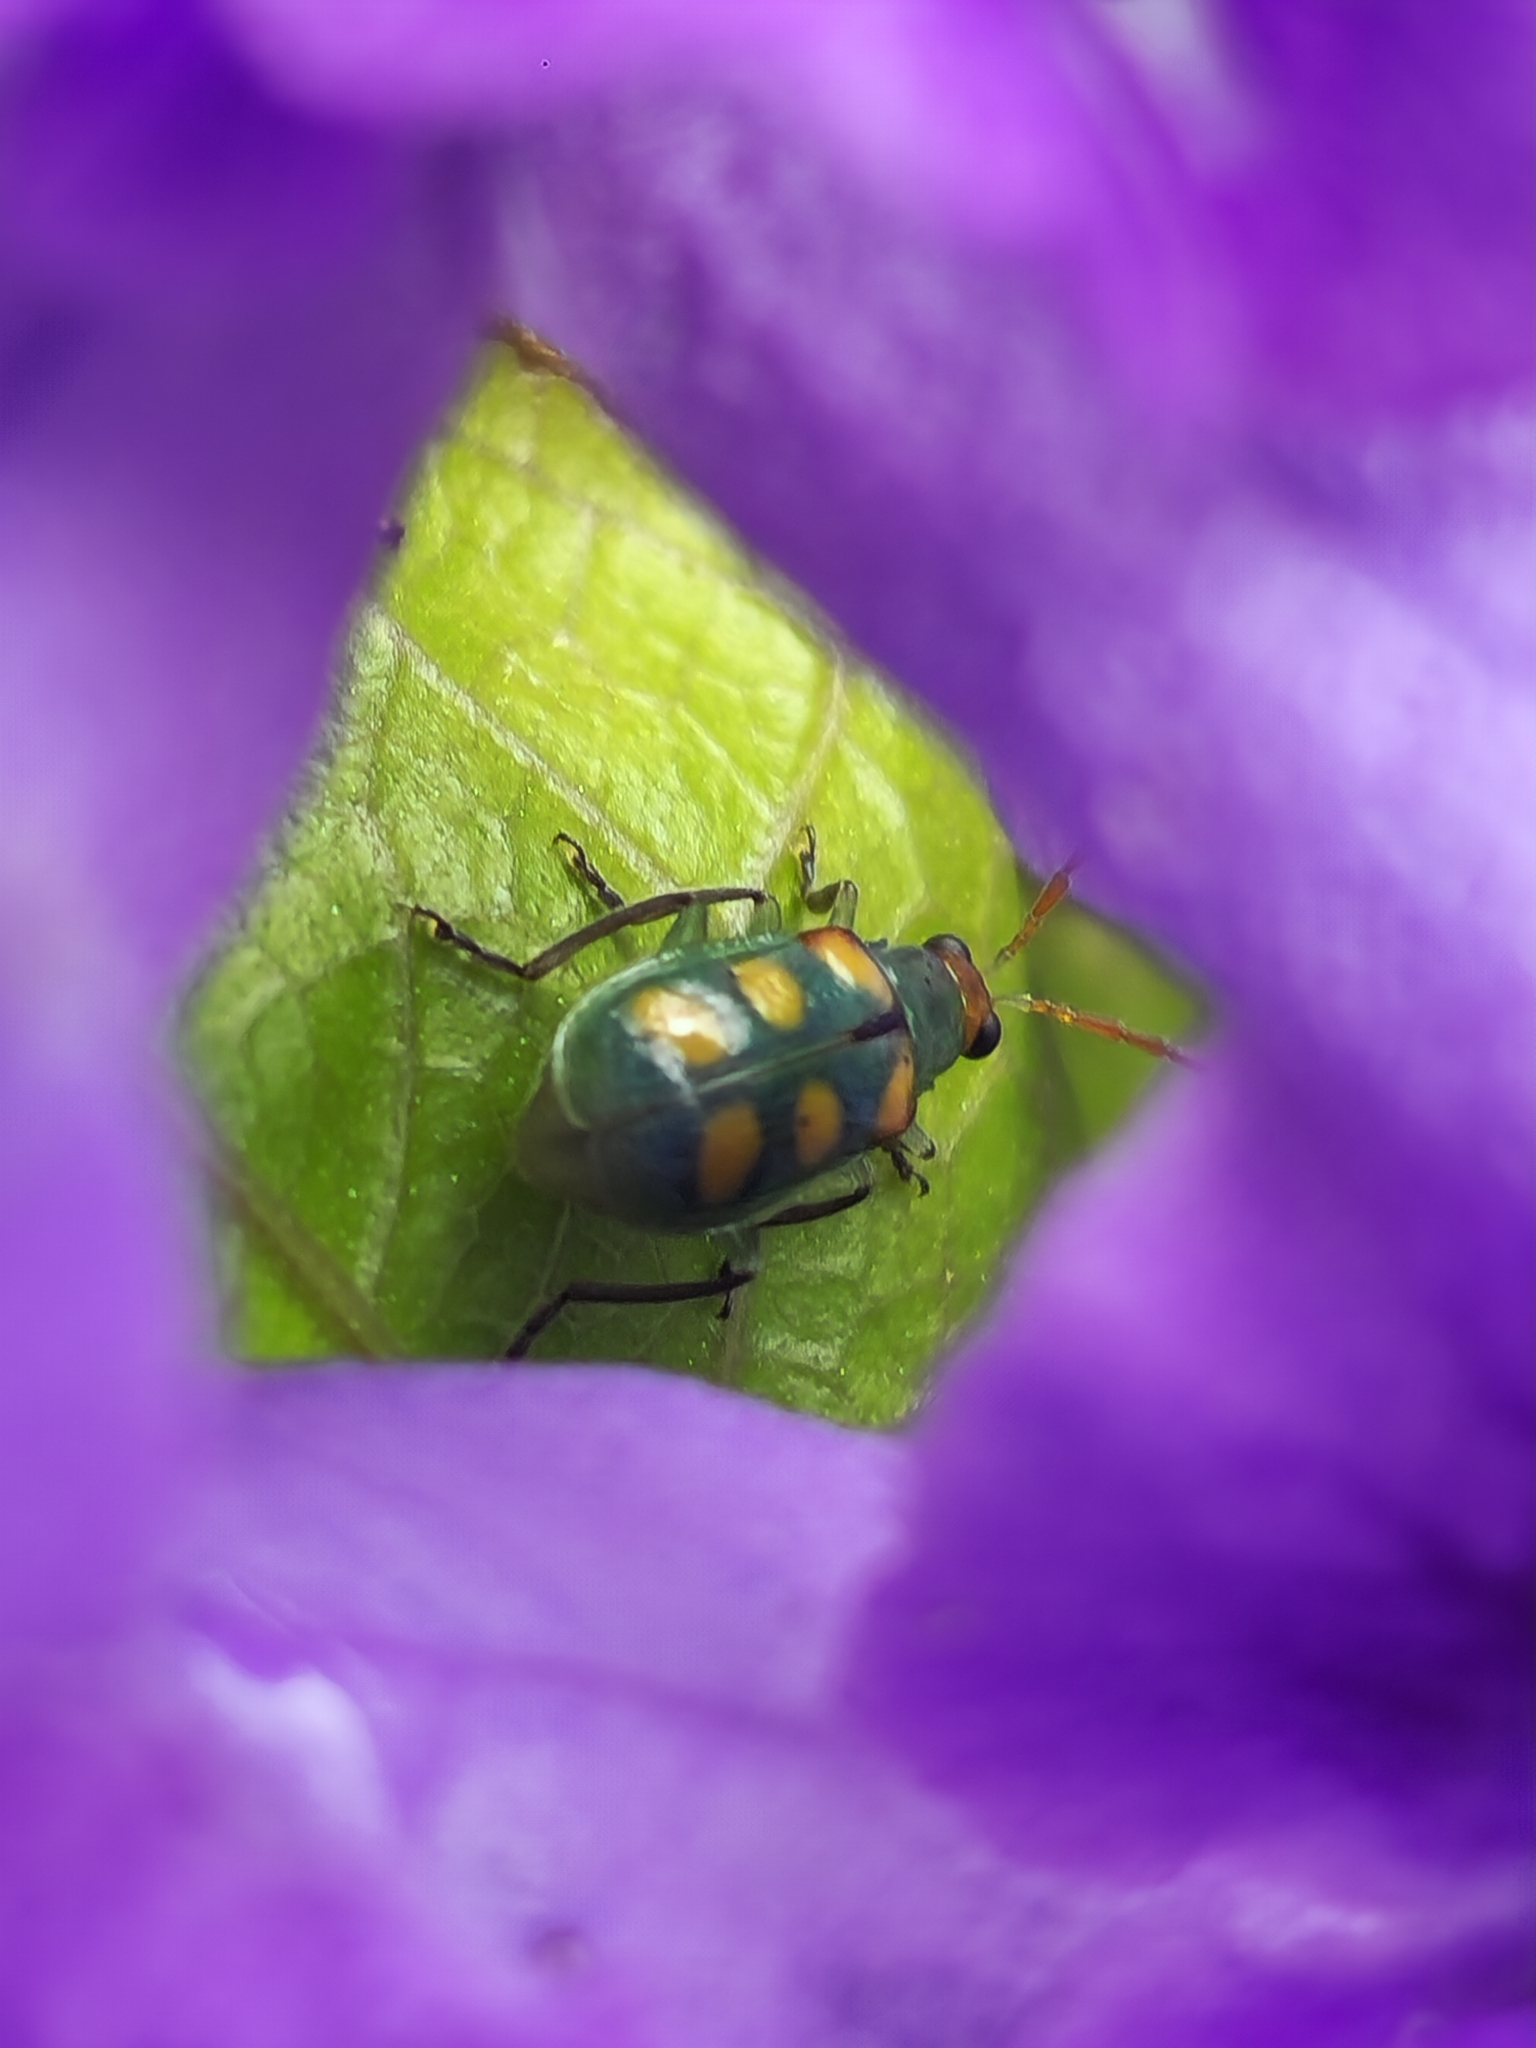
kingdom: Animalia
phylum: Arthropoda
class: Insecta
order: Coleoptera
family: Chrysomelidae
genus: Diabrotica
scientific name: Diabrotica speciosa
